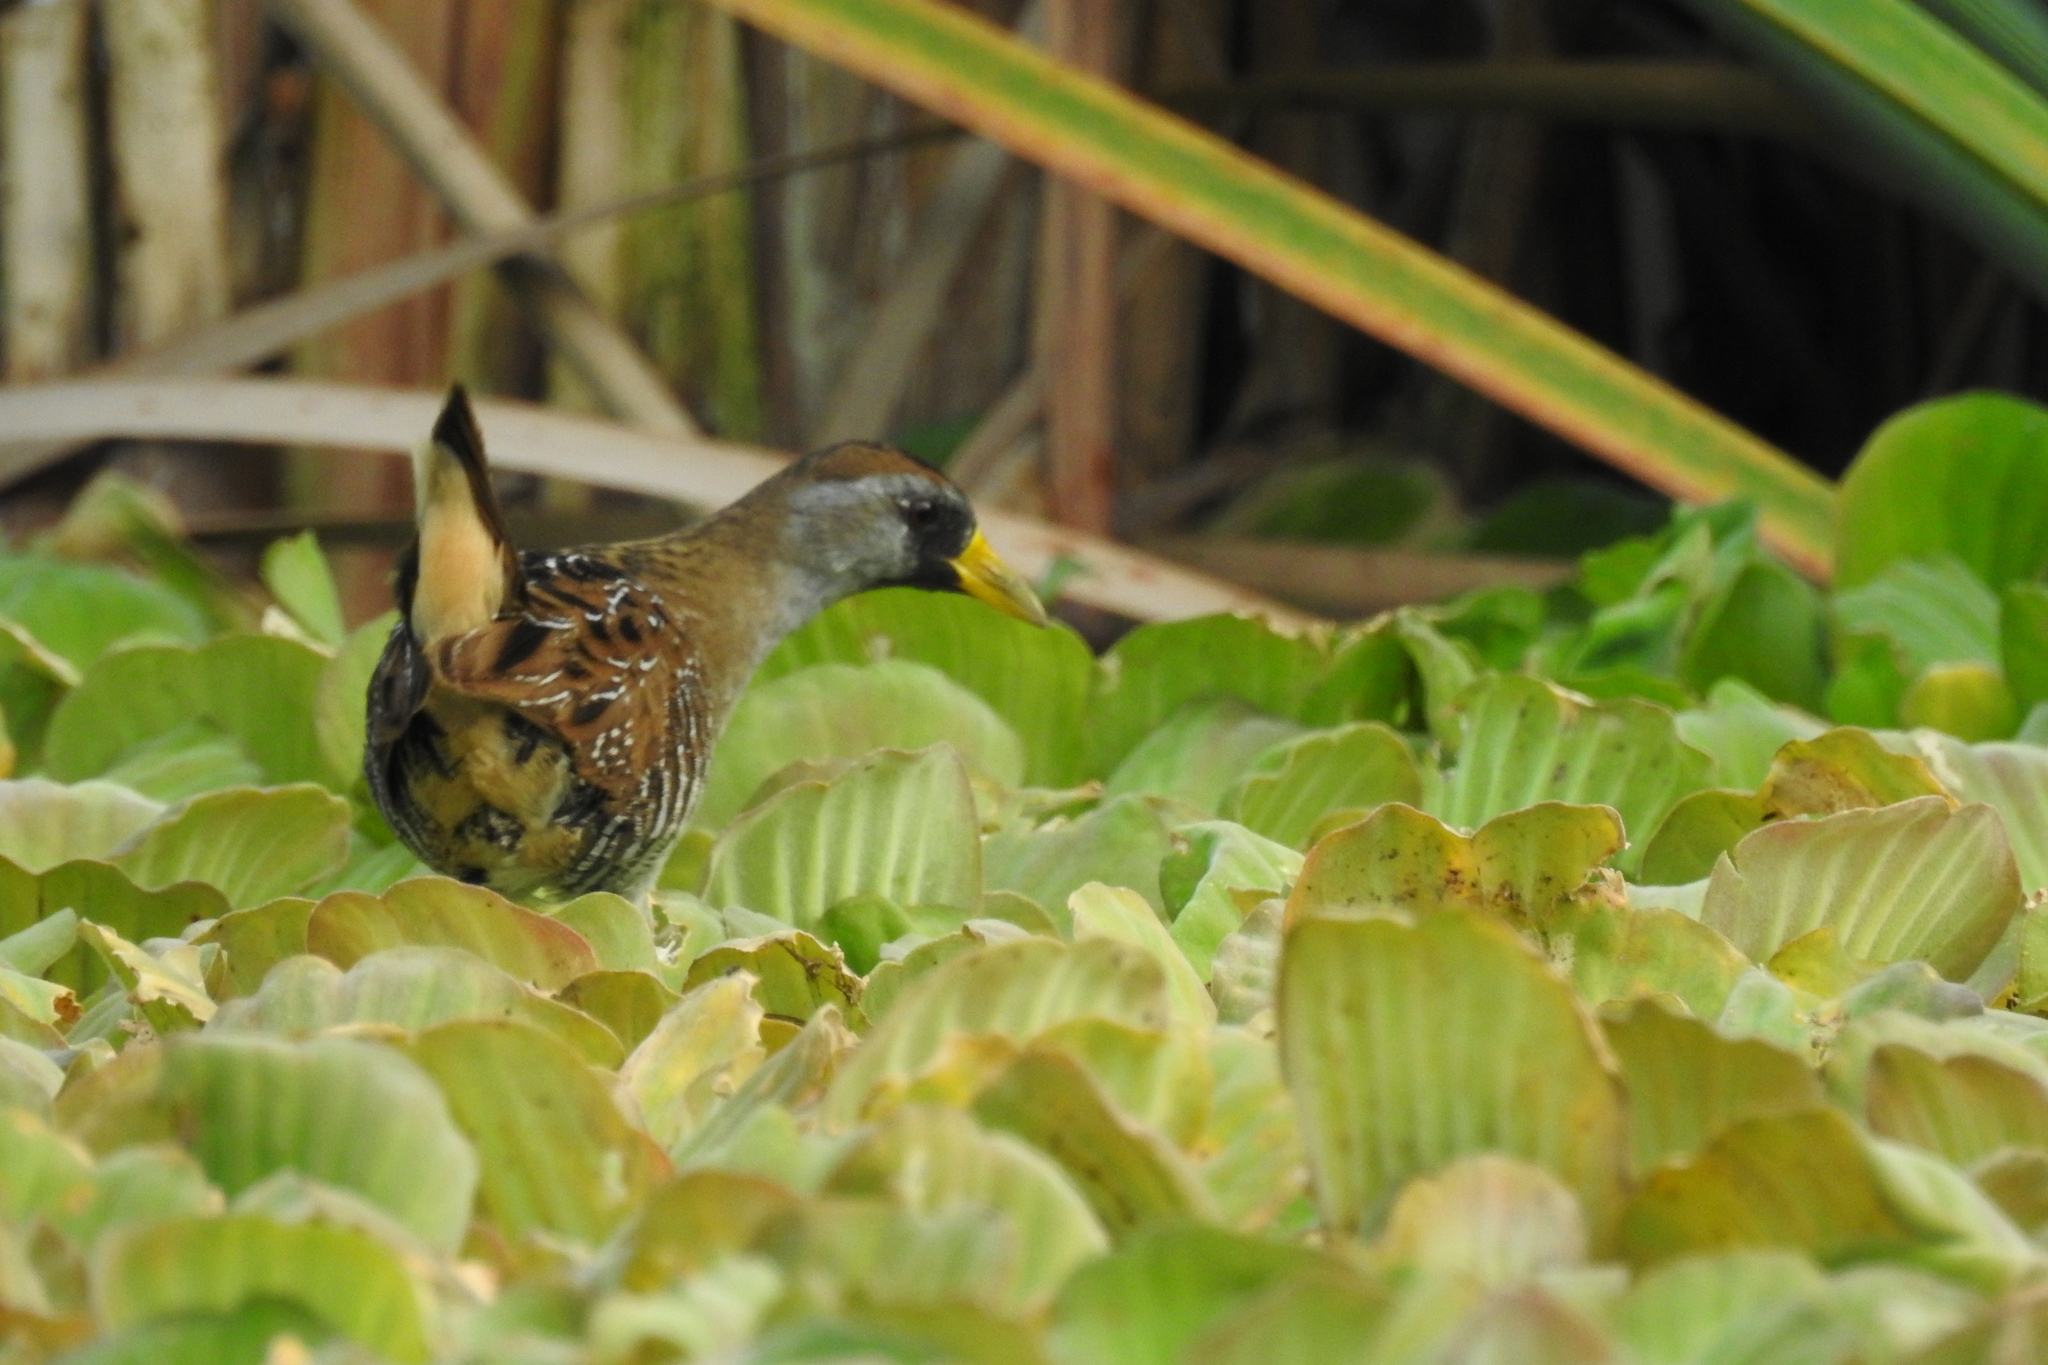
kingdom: Animalia
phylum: Chordata
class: Aves
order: Gruiformes
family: Rallidae
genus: Porzana
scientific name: Porzana carolina
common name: Sora
